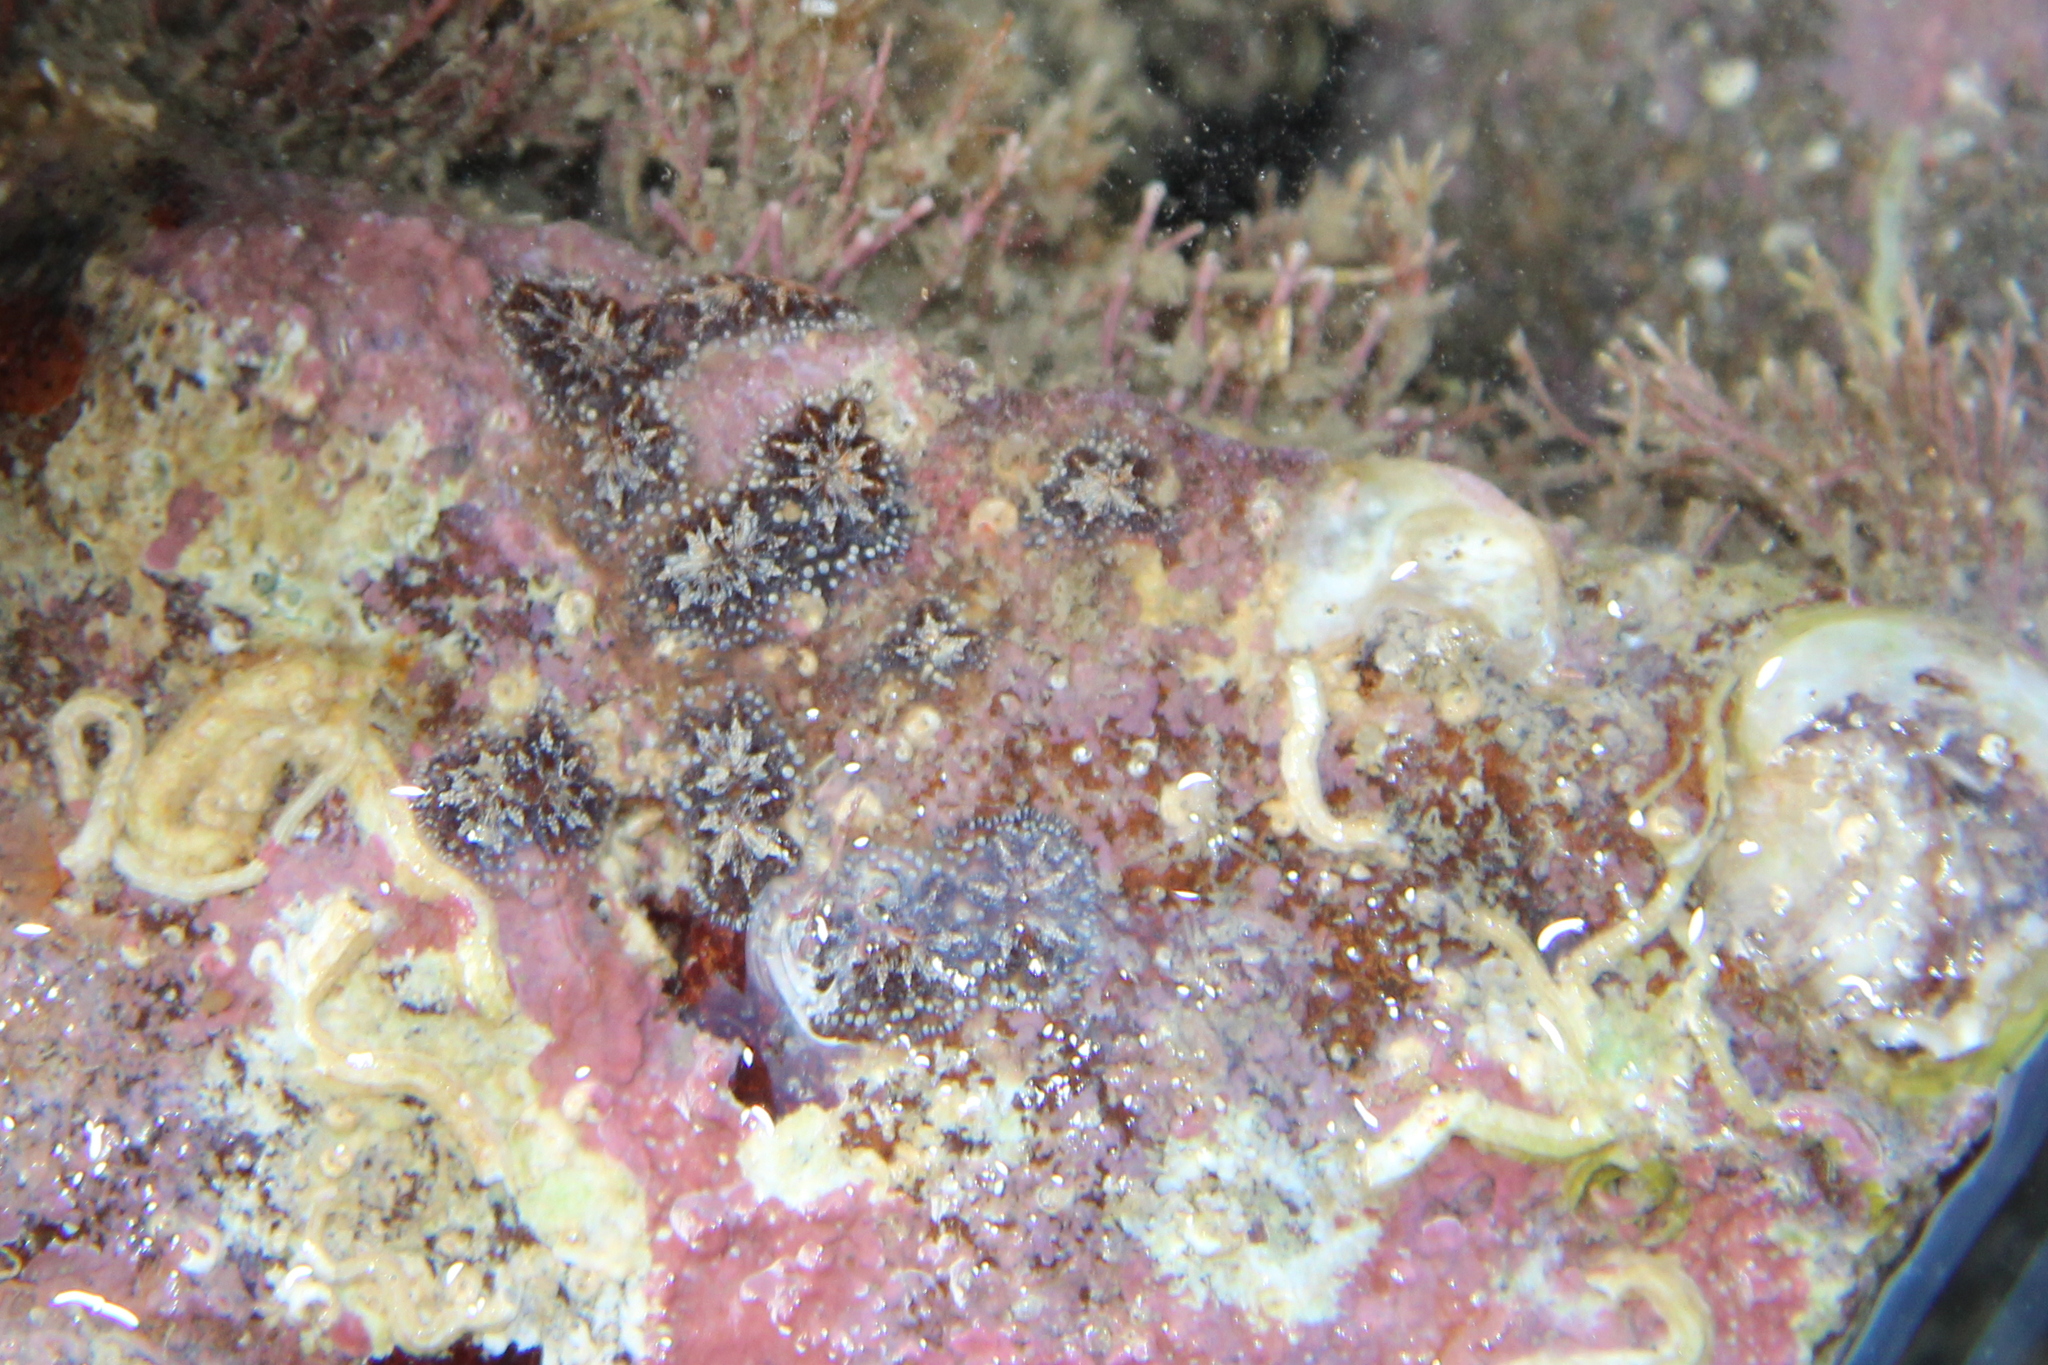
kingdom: Animalia
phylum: Chordata
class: Ascidiacea
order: Stolidobranchia
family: Styelidae
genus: Botryllus
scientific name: Botryllus schlosseri
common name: Golden star tunicate
